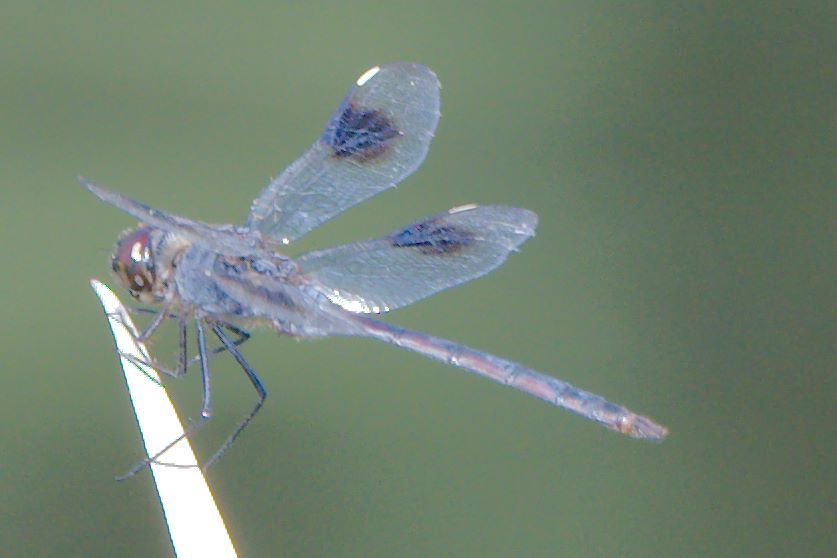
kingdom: Animalia
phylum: Arthropoda
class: Insecta
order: Odonata
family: Libellulidae
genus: Brachymesia
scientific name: Brachymesia gravida
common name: Four-spotted pennant
